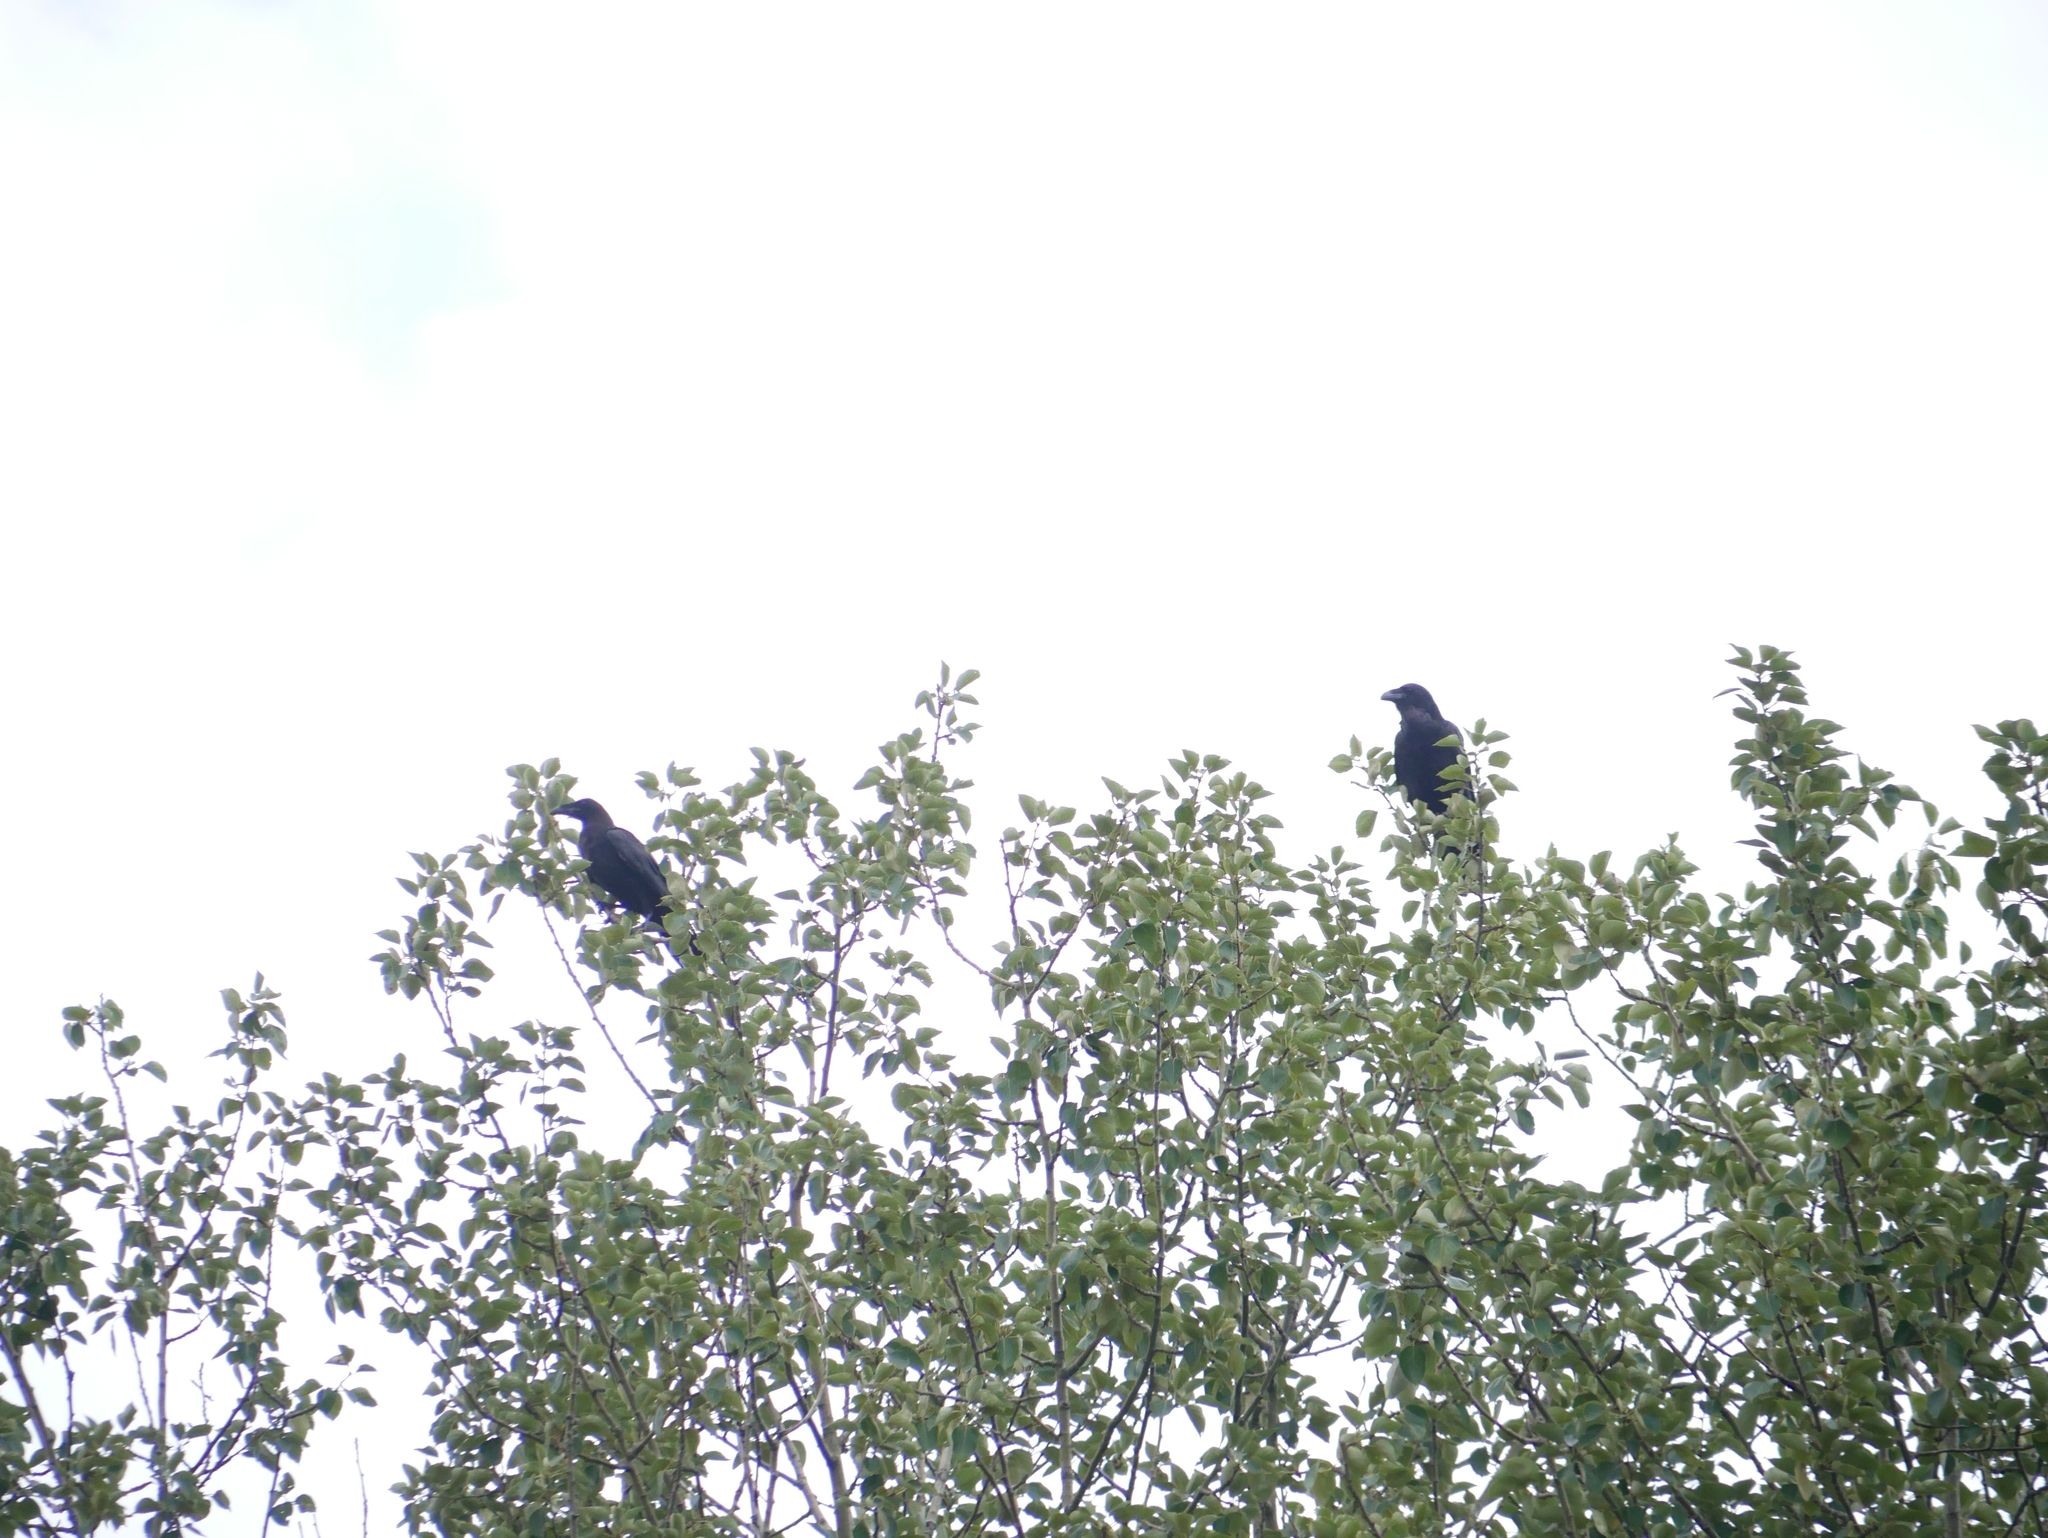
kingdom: Animalia
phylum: Chordata
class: Aves
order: Passeriformes
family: Corvidae
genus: Corvus
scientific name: Corvus corax
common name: Common raven
